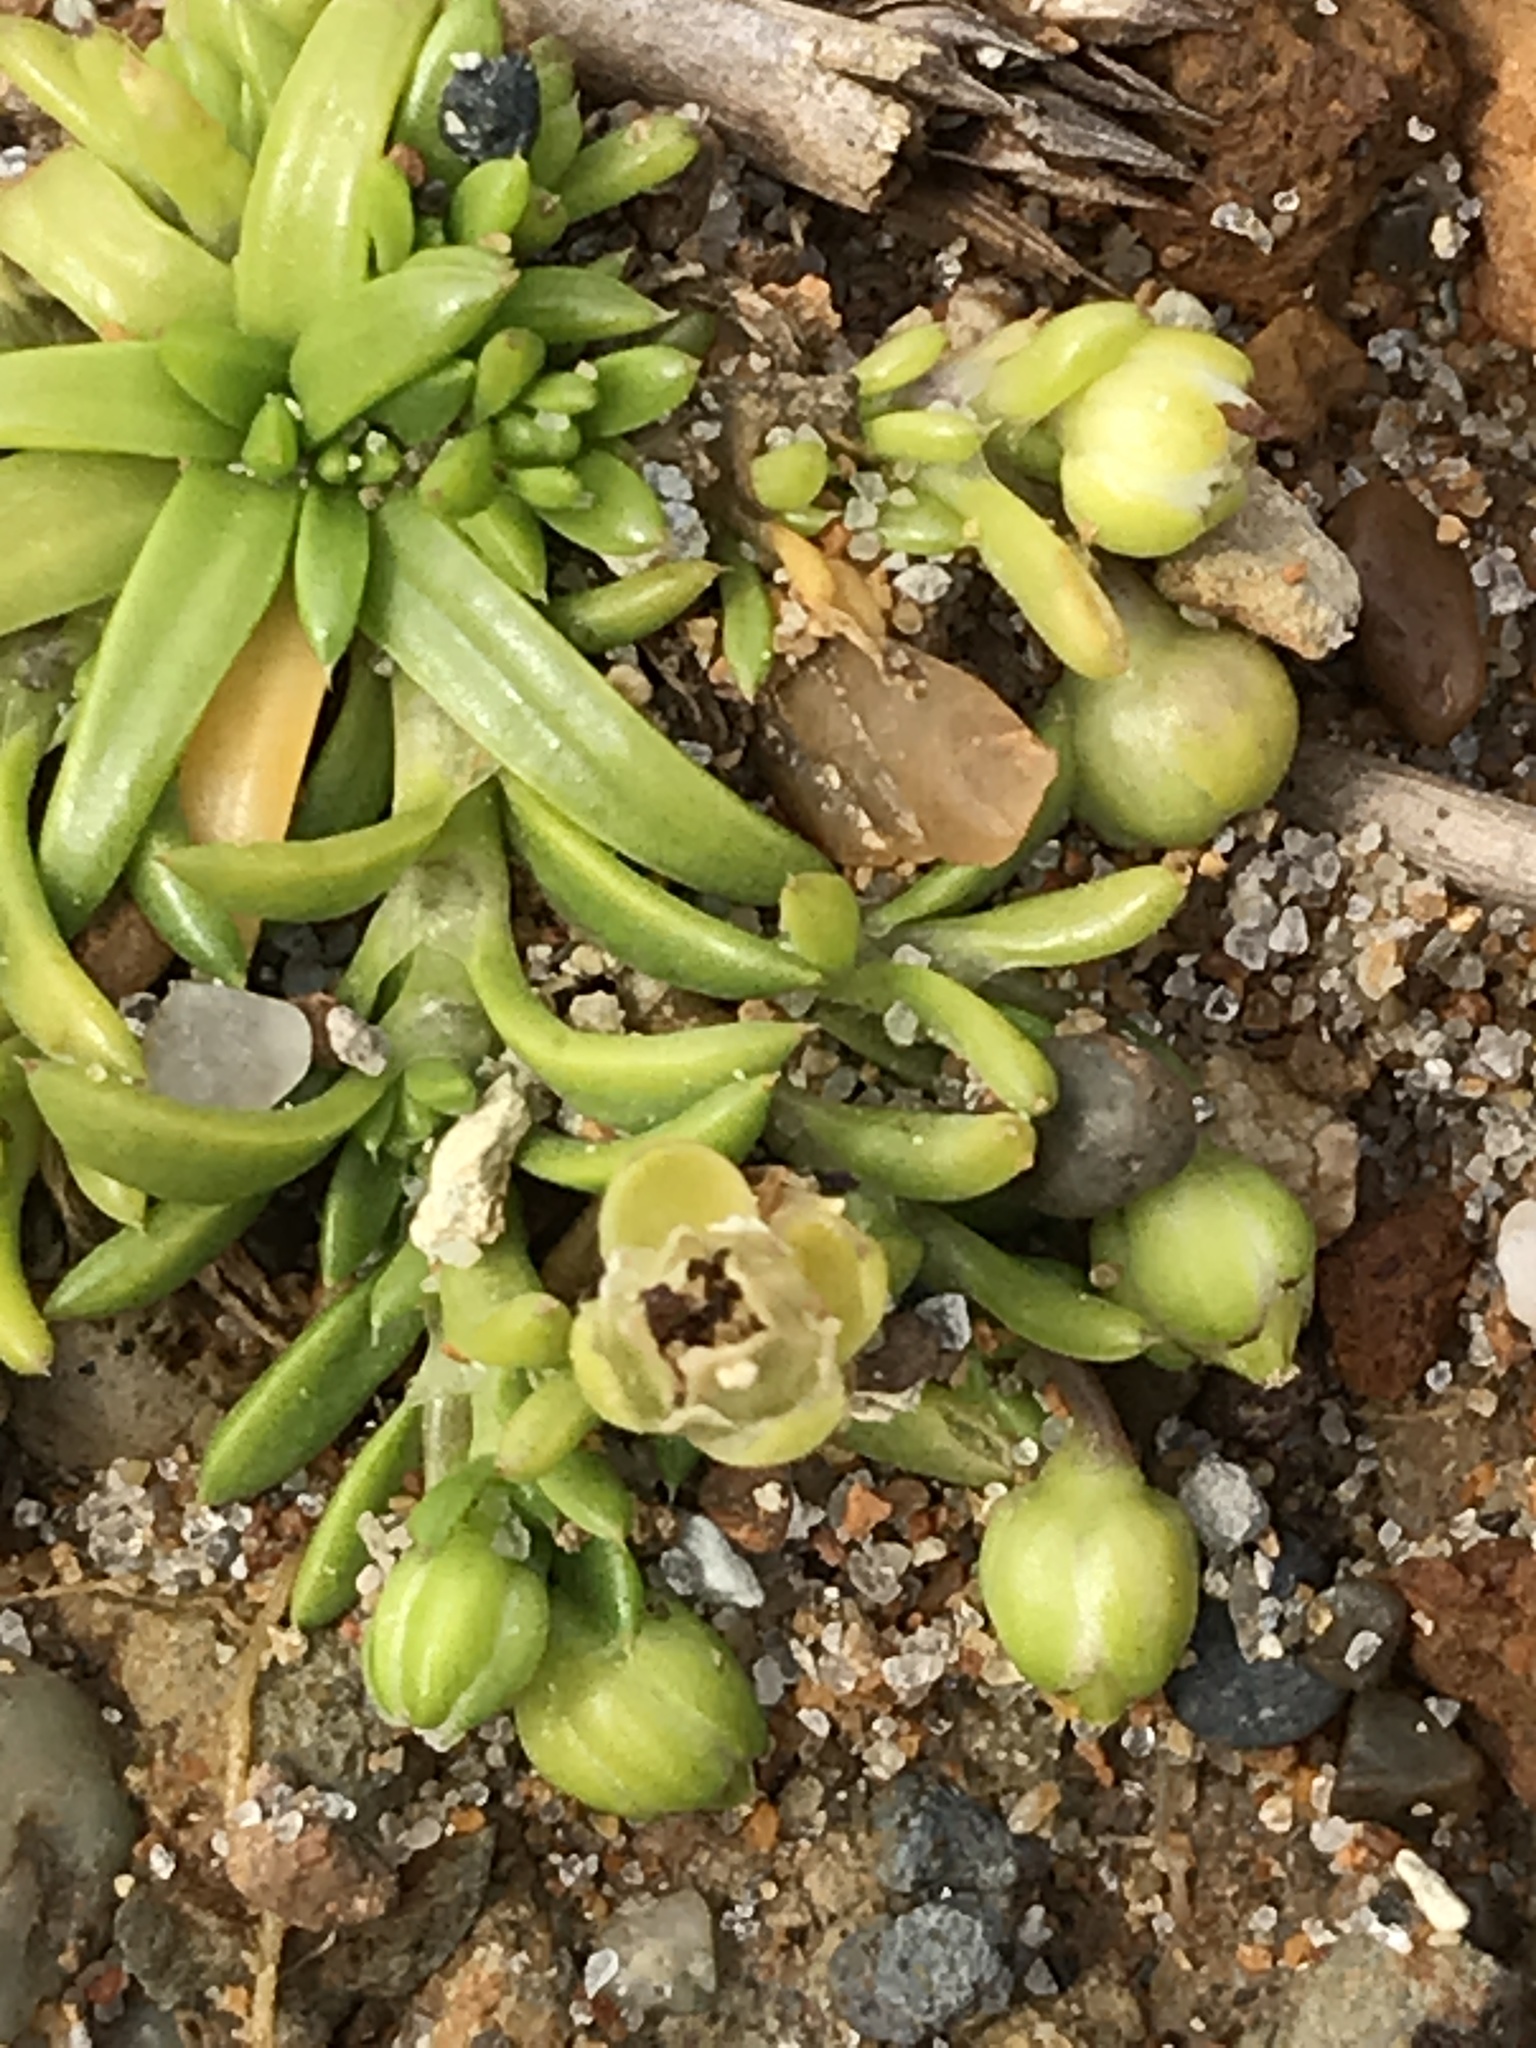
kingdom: Plantae
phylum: Tracheophyta
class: Magnoliopsida
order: Caryophyllales
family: Caryophyllaceae
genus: Sagina
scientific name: Sagina maxima
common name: Coastal pearlwort
